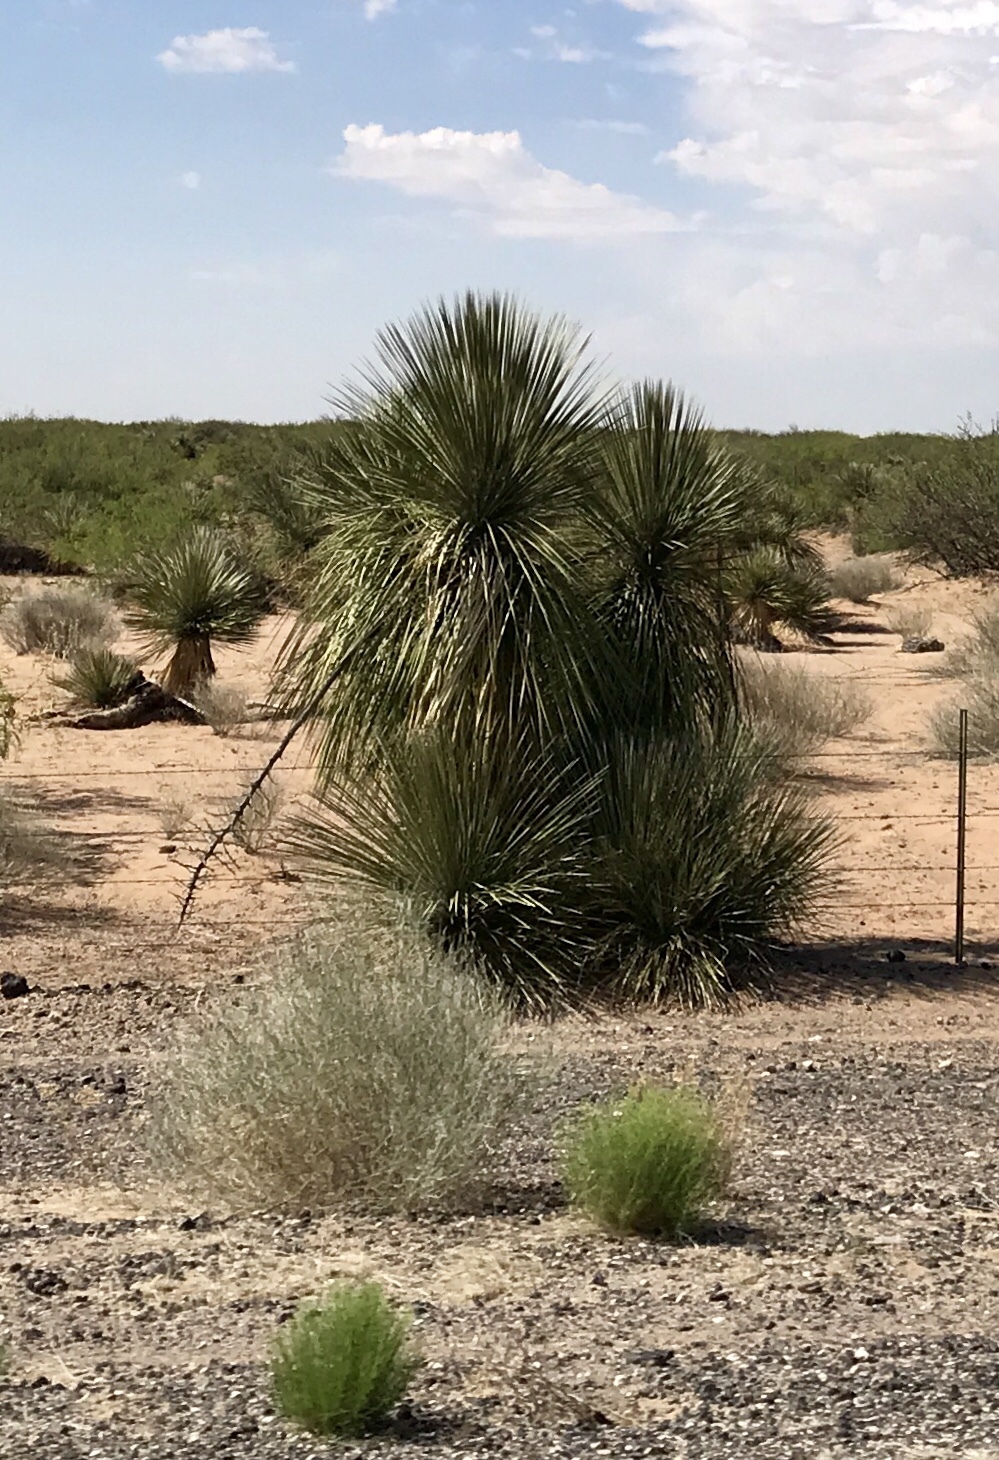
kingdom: Plantae
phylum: Tracheophyta
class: Liliopsida
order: Asparagales
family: Asparagaceae
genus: Yucca
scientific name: Yucca elata
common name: Palmella
